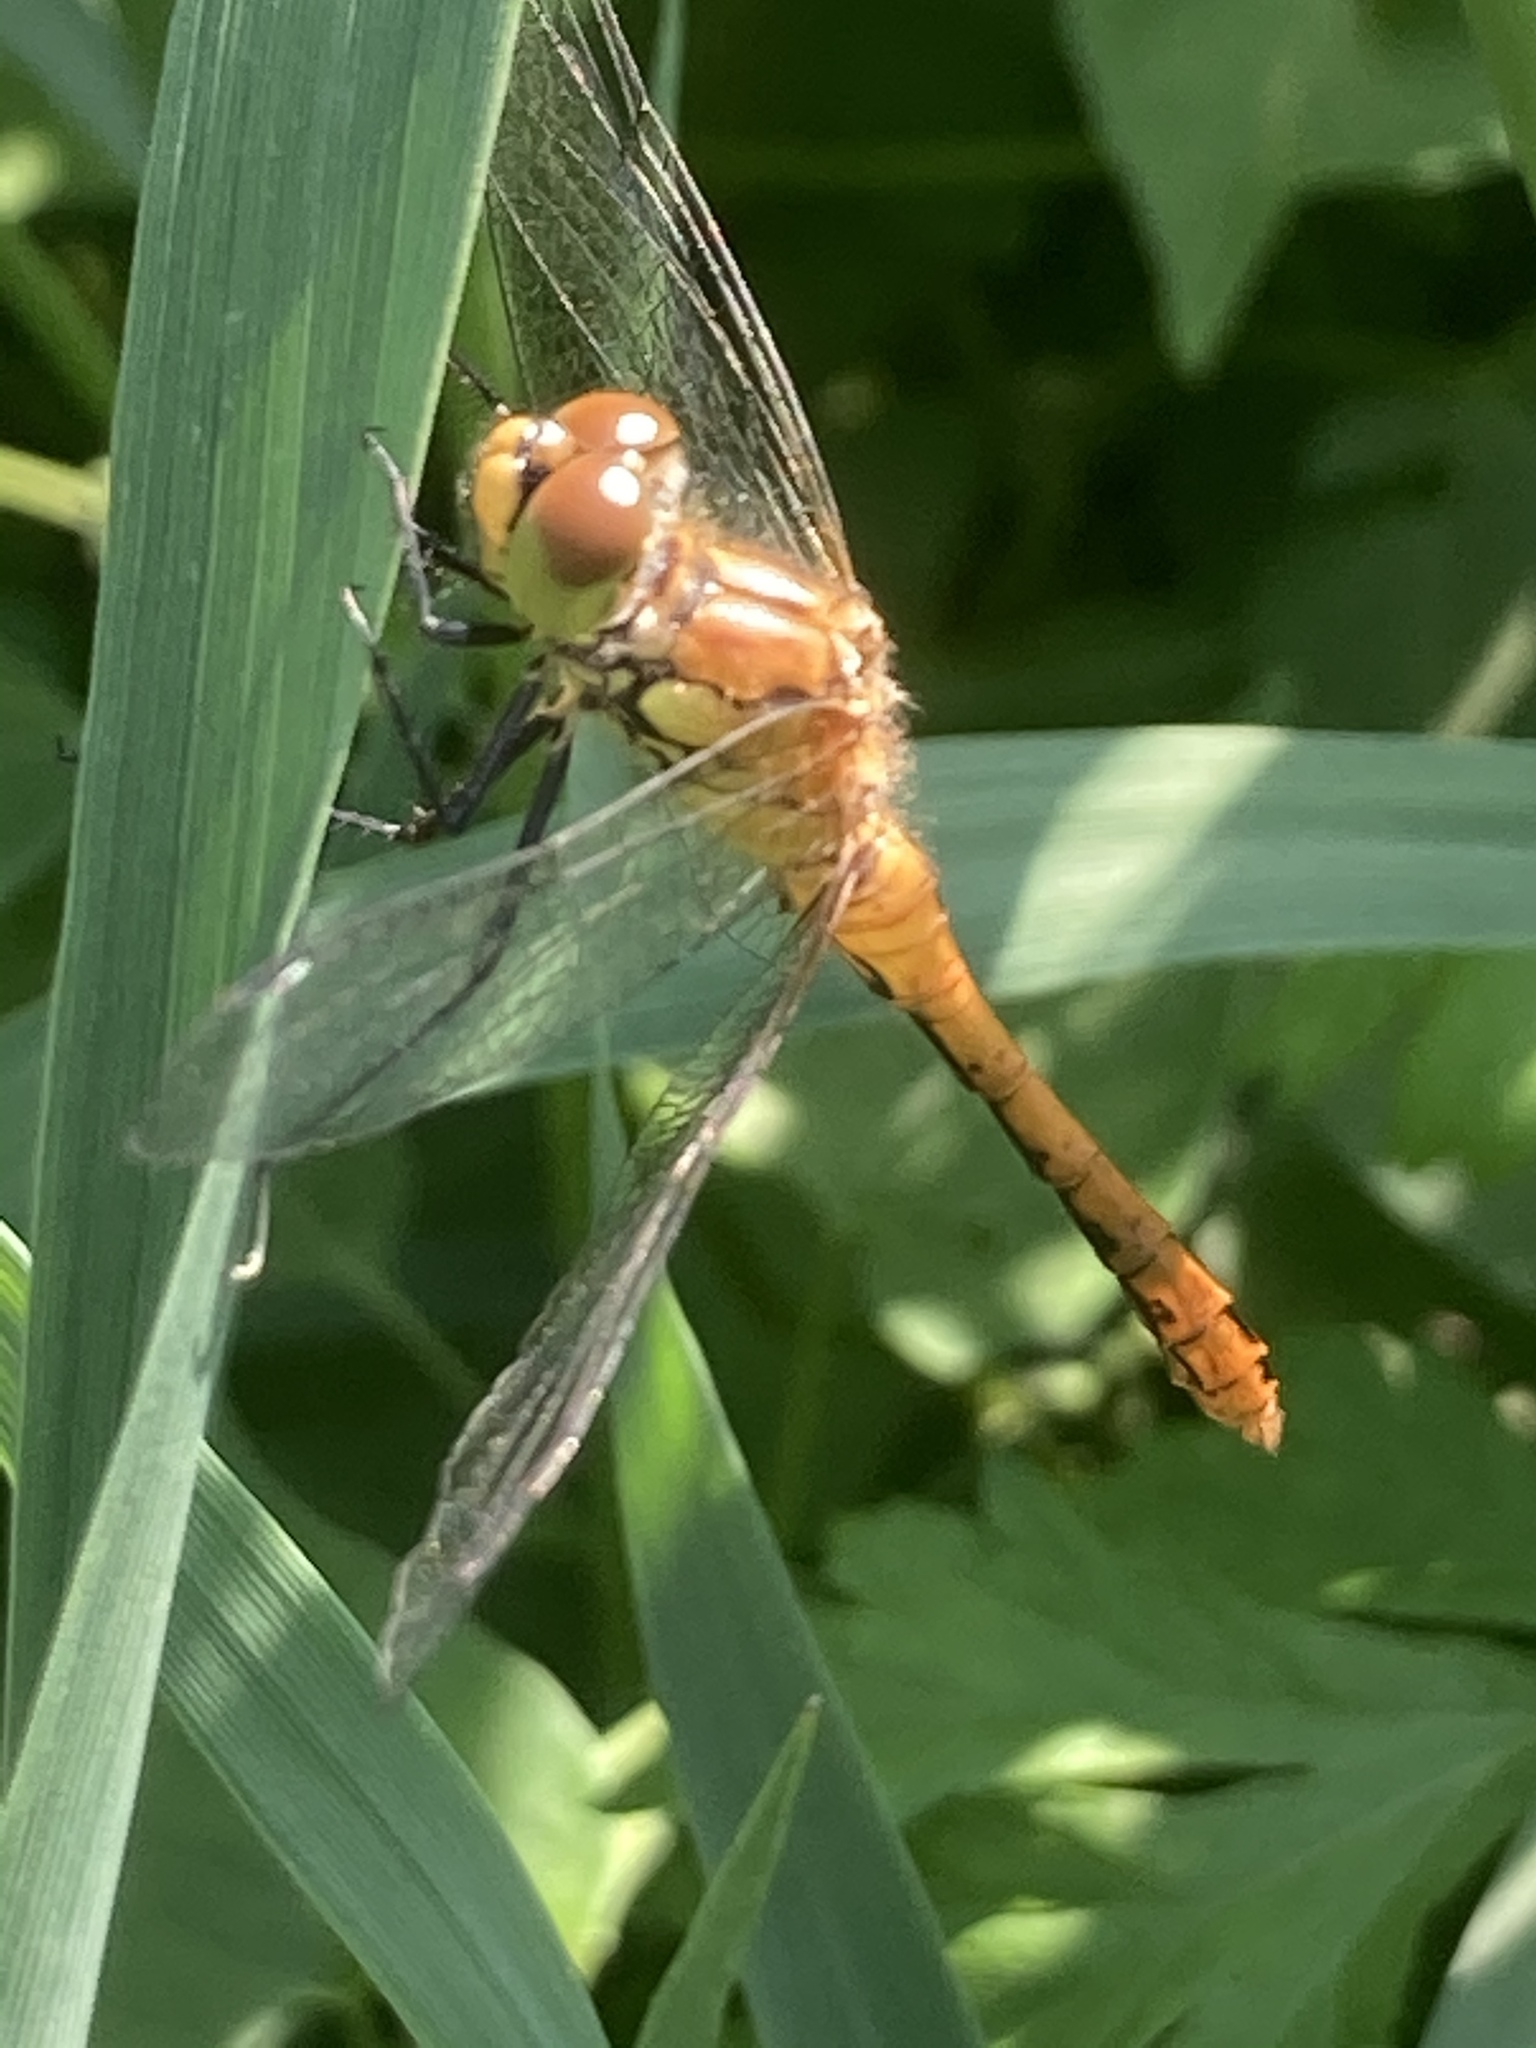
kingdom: Animalia
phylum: Arthropoda
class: Insecta
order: Odonata
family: Libellulidae
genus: Sympetrum
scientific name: Sympetrum sanguineum
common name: Ruddy darter
